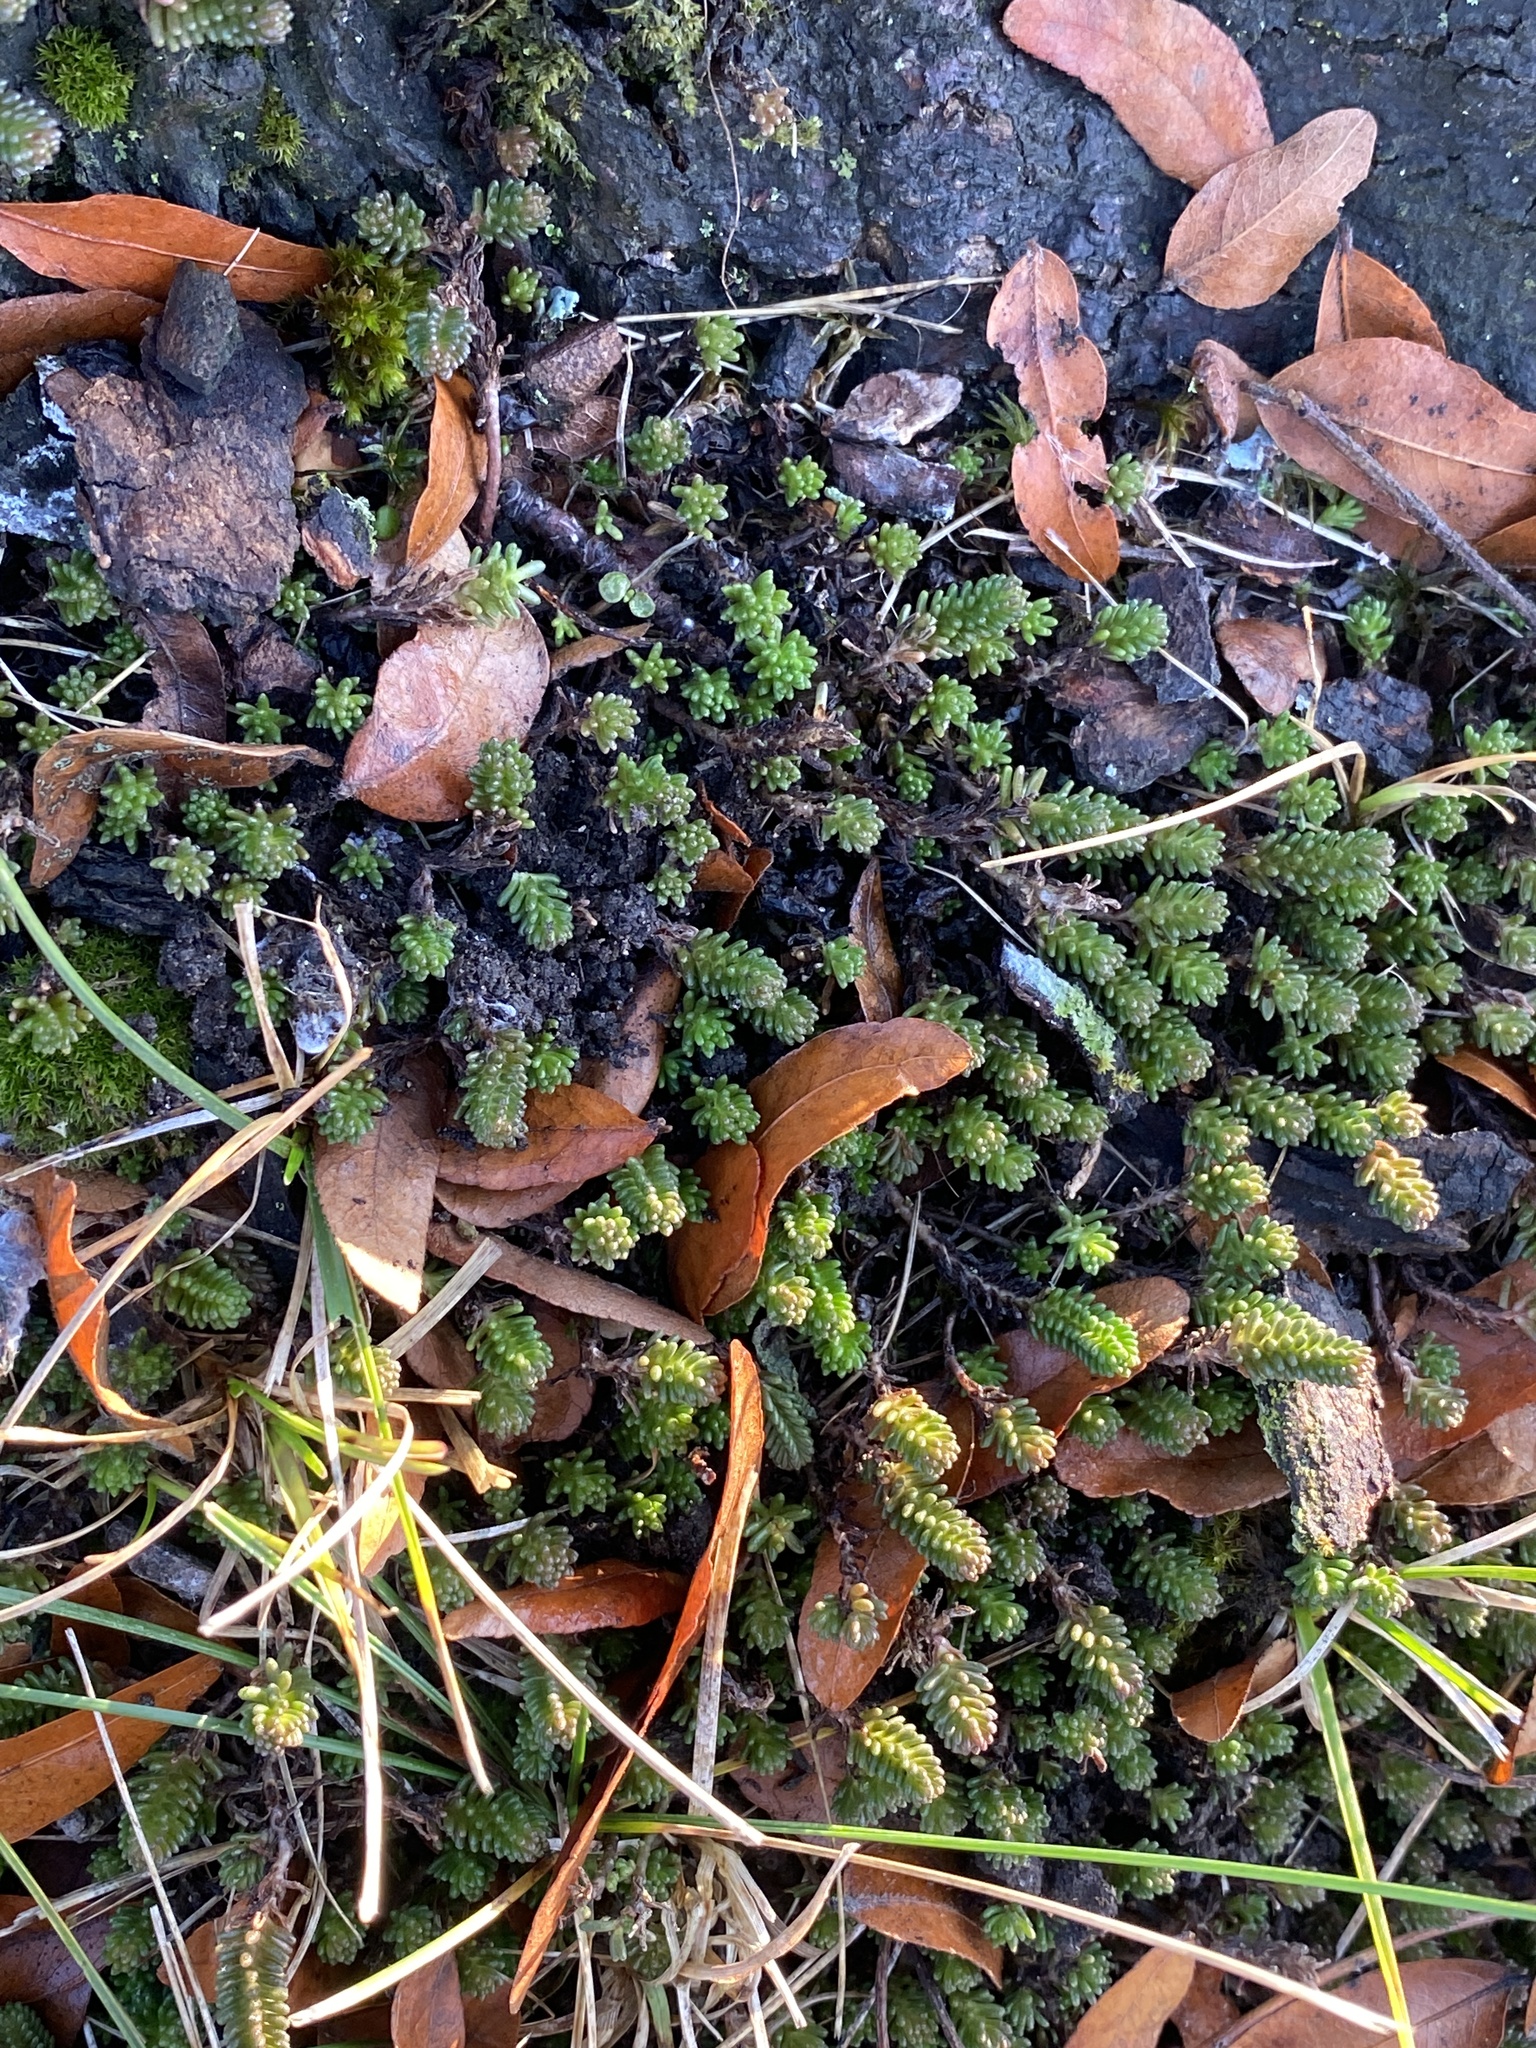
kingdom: Plantae
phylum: Tracheophyta
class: Magnoliopsida
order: Saxifragales
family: Crassulaceae
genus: Sedum
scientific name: Sedum sexangulare
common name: Tasteless stonecrop
